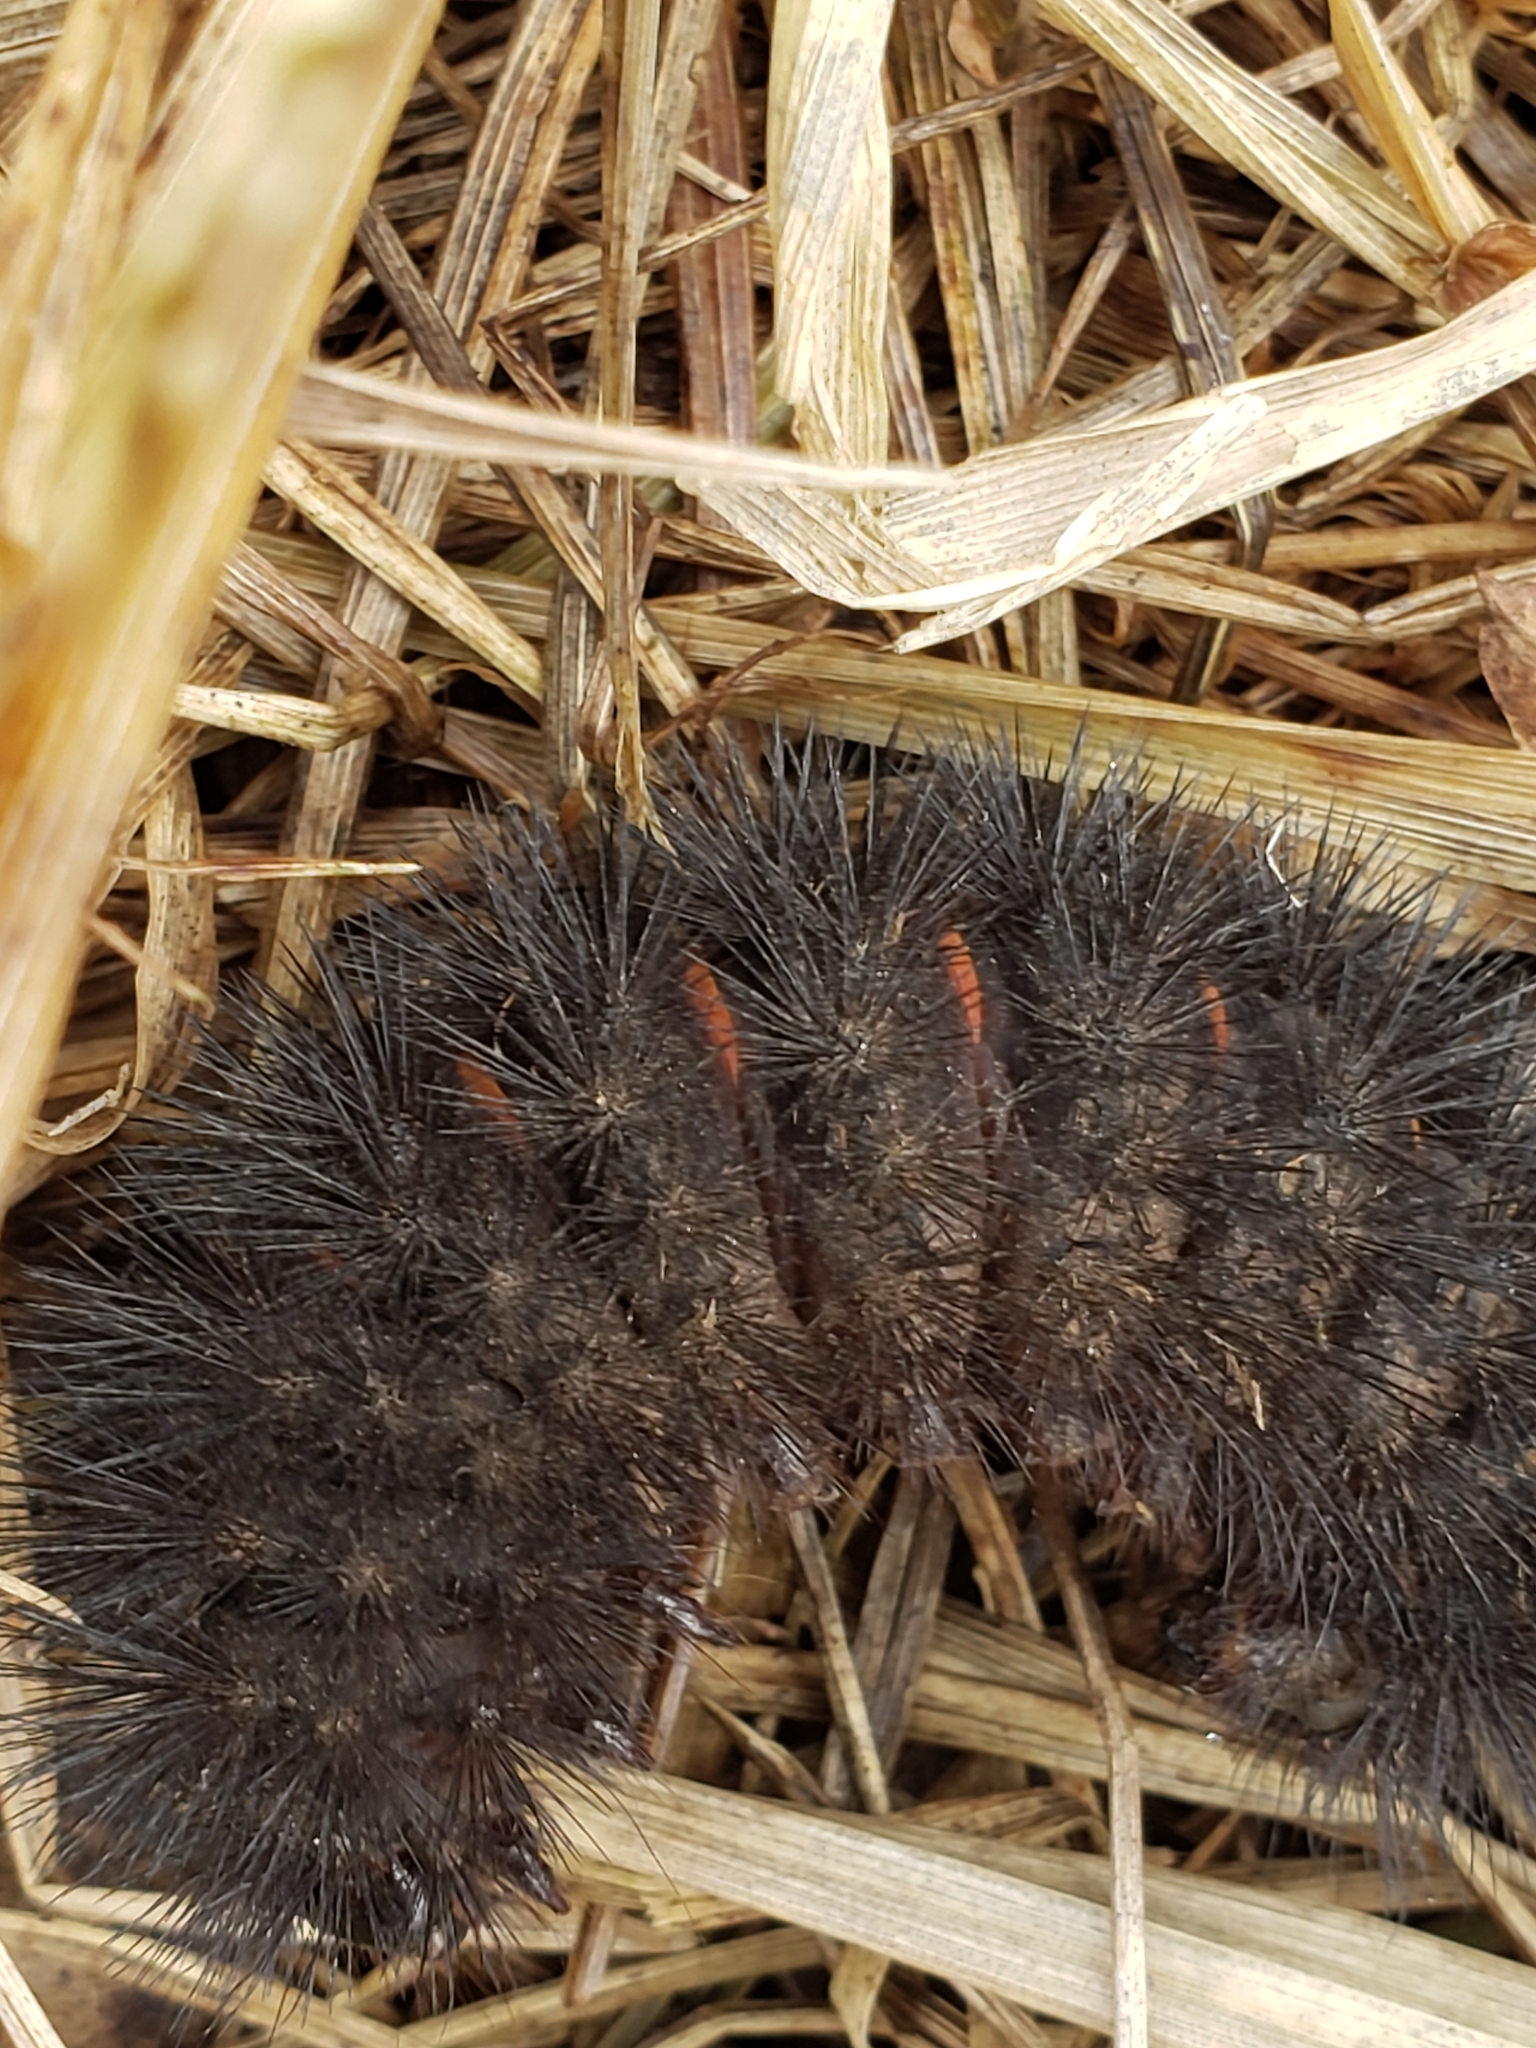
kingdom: Animalia
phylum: Arthropoda
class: Insecta
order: Lepidoptera
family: Erebidae
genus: Hypercompe
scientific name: Hypercompe scribonia
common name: Giant leopard moth
